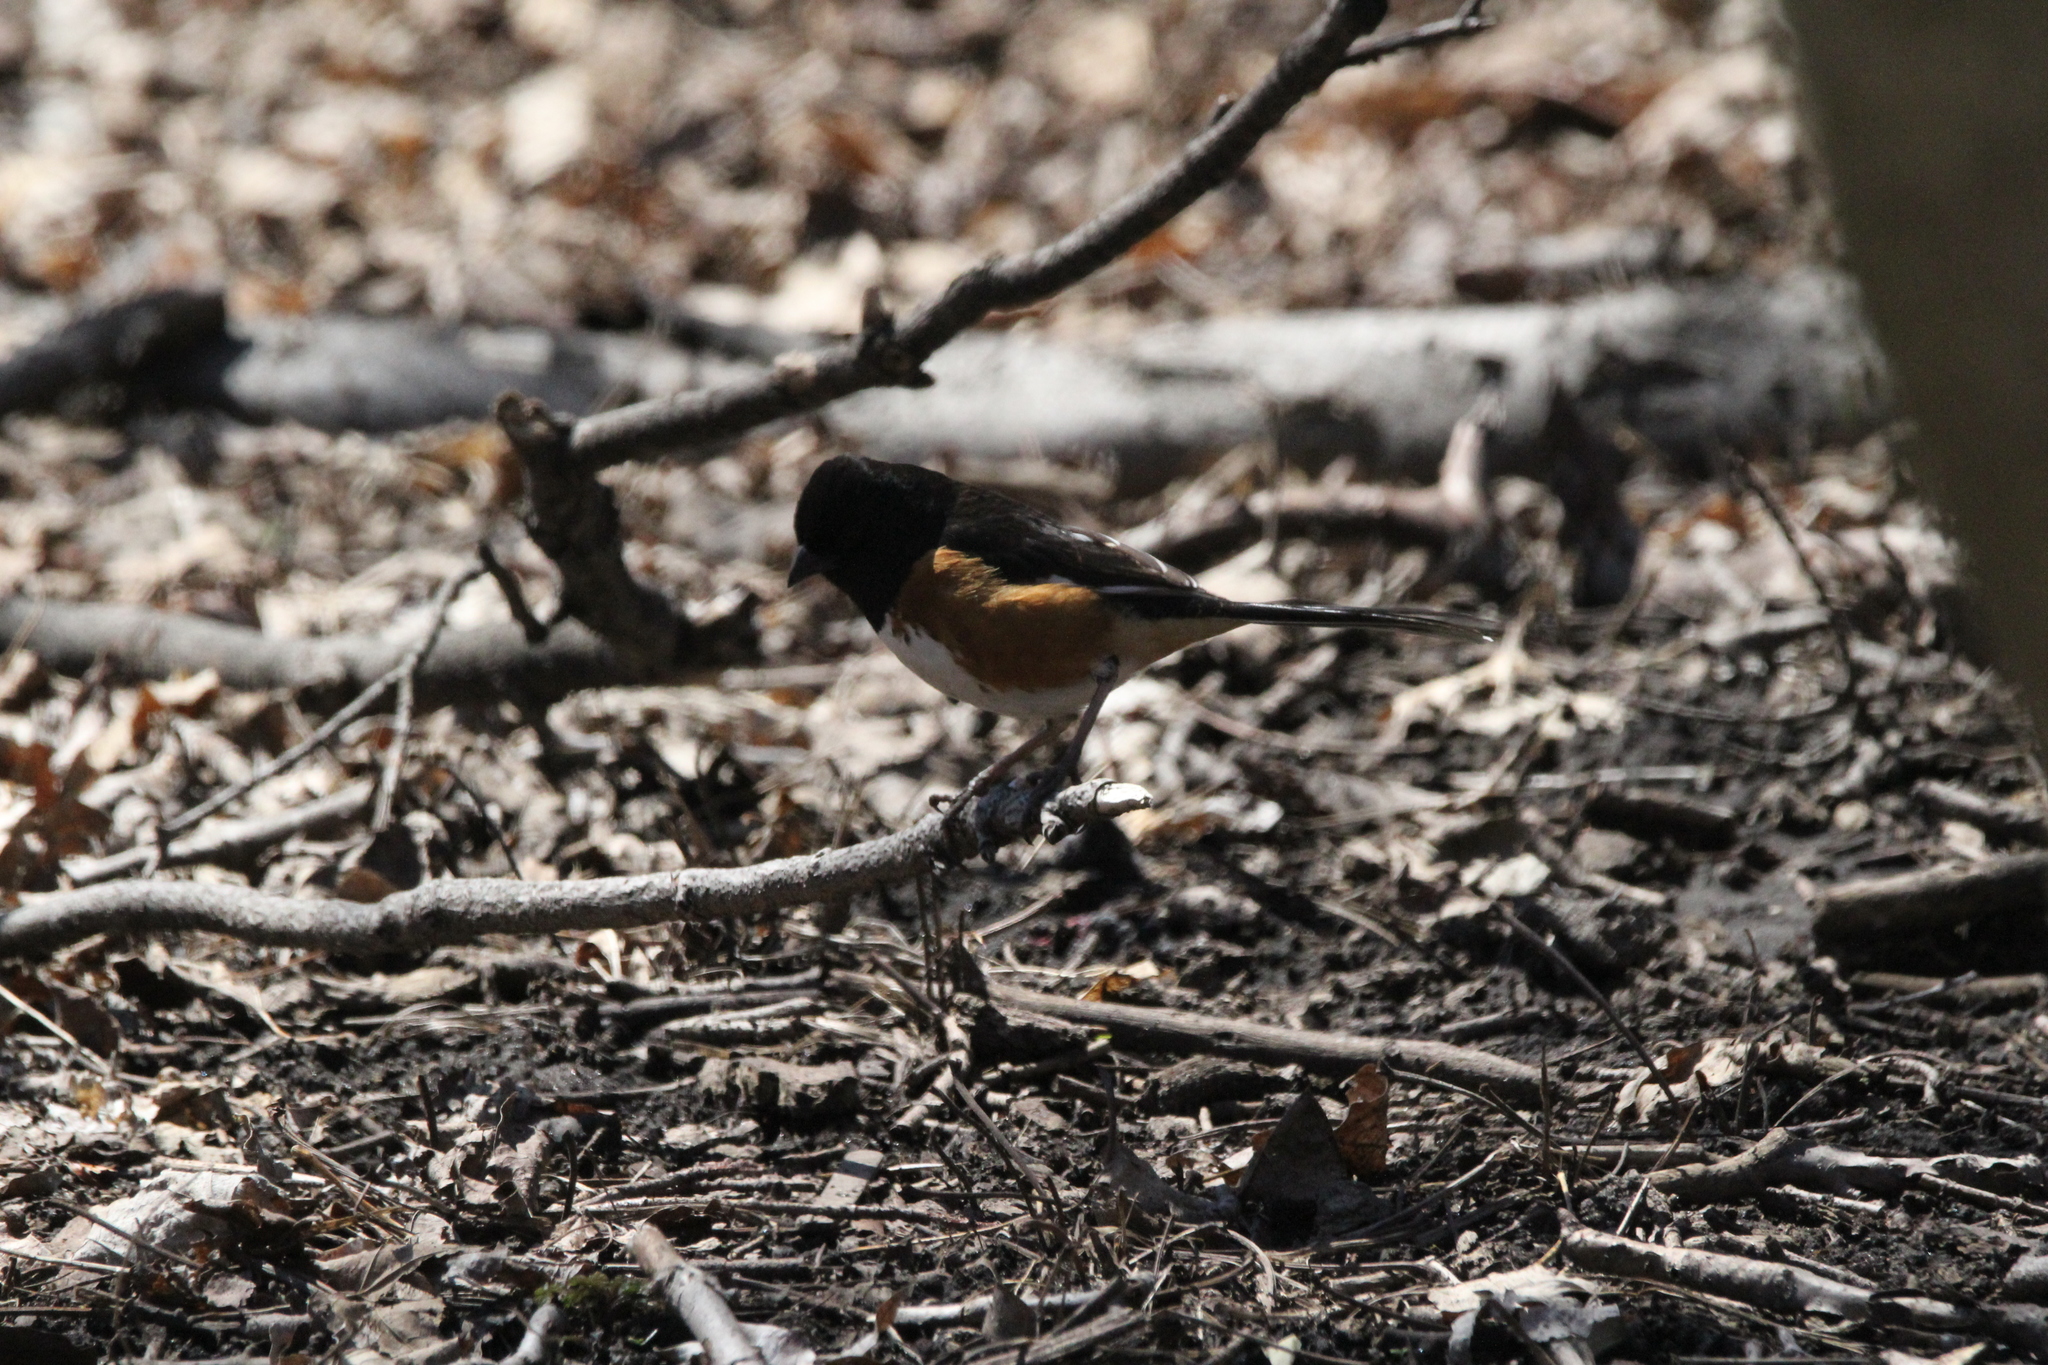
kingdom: Animalia
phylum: Chordata
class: Aves
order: Passeriformes
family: Passerellidae
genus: Pipilo
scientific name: Pipilo erythrophthalmus
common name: Eastern towhee
